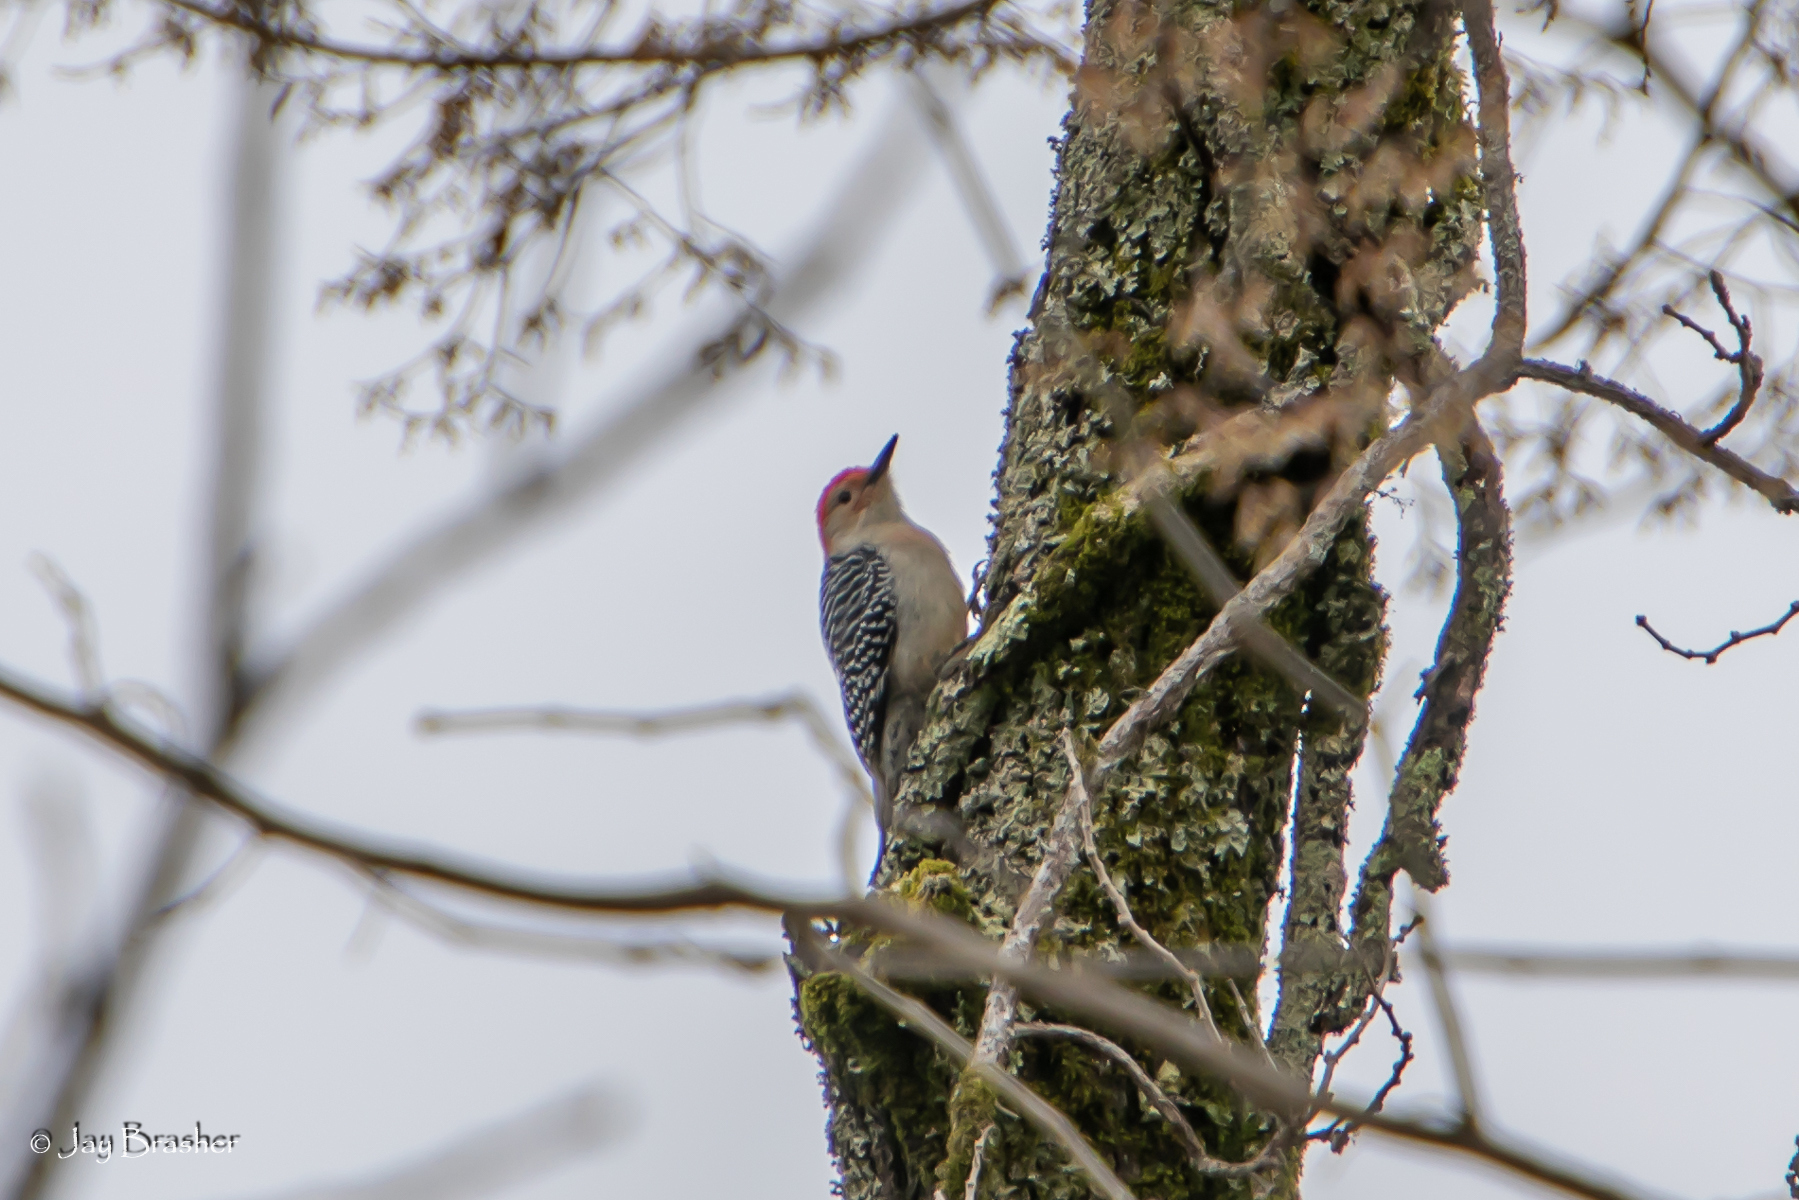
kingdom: Animalia
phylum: Chordata
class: Aves
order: Piciformes
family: Picidae
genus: Melanerpes
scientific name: Melanerpes carolinus
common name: Red-bellied woodpecker
